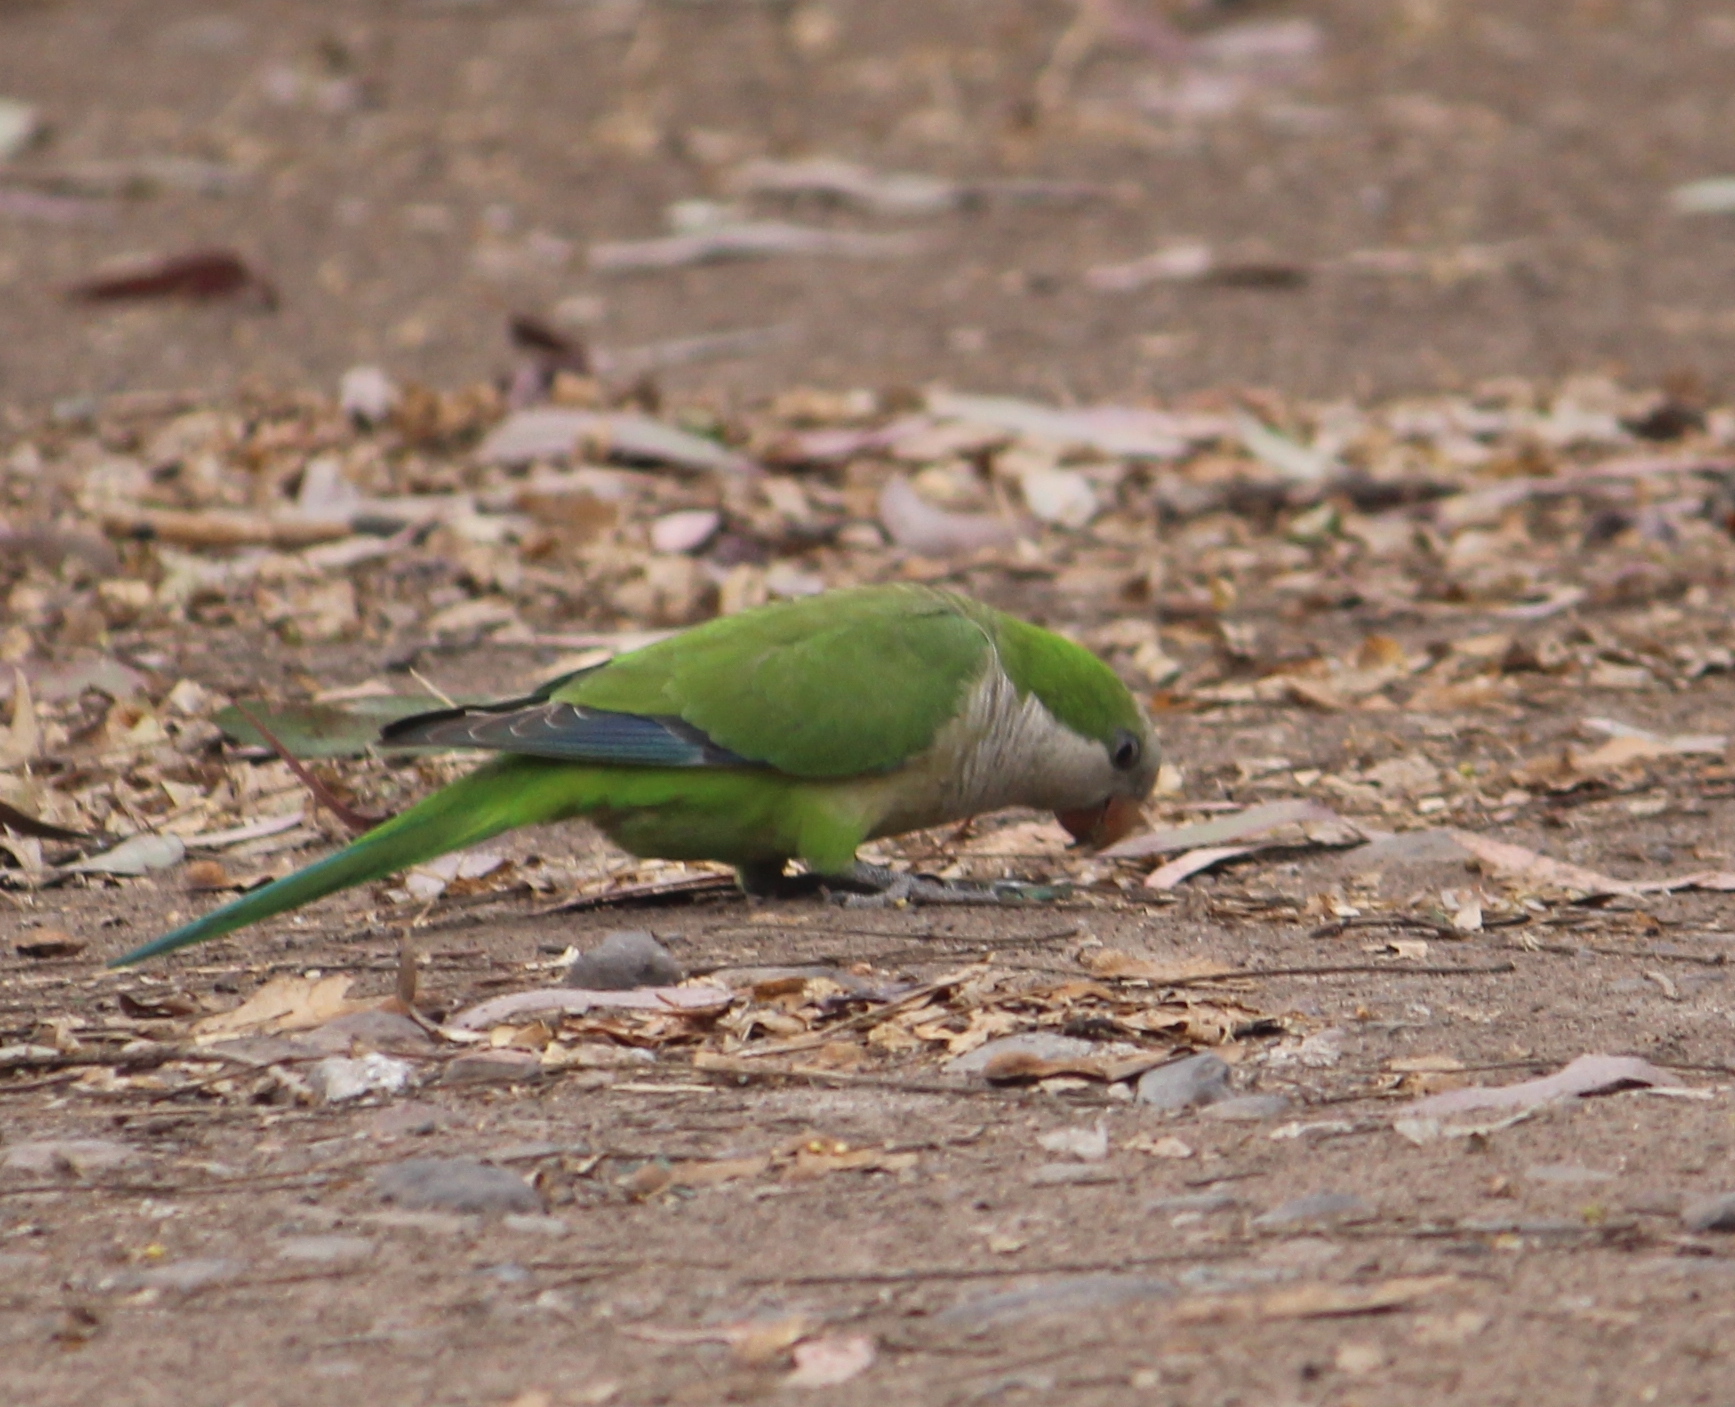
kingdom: Animalia
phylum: Chordata
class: Aves
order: Psittaciformes
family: Psittacidae
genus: Myiopsitta
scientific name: Myiopsitta monachus
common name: Monk parakeet
